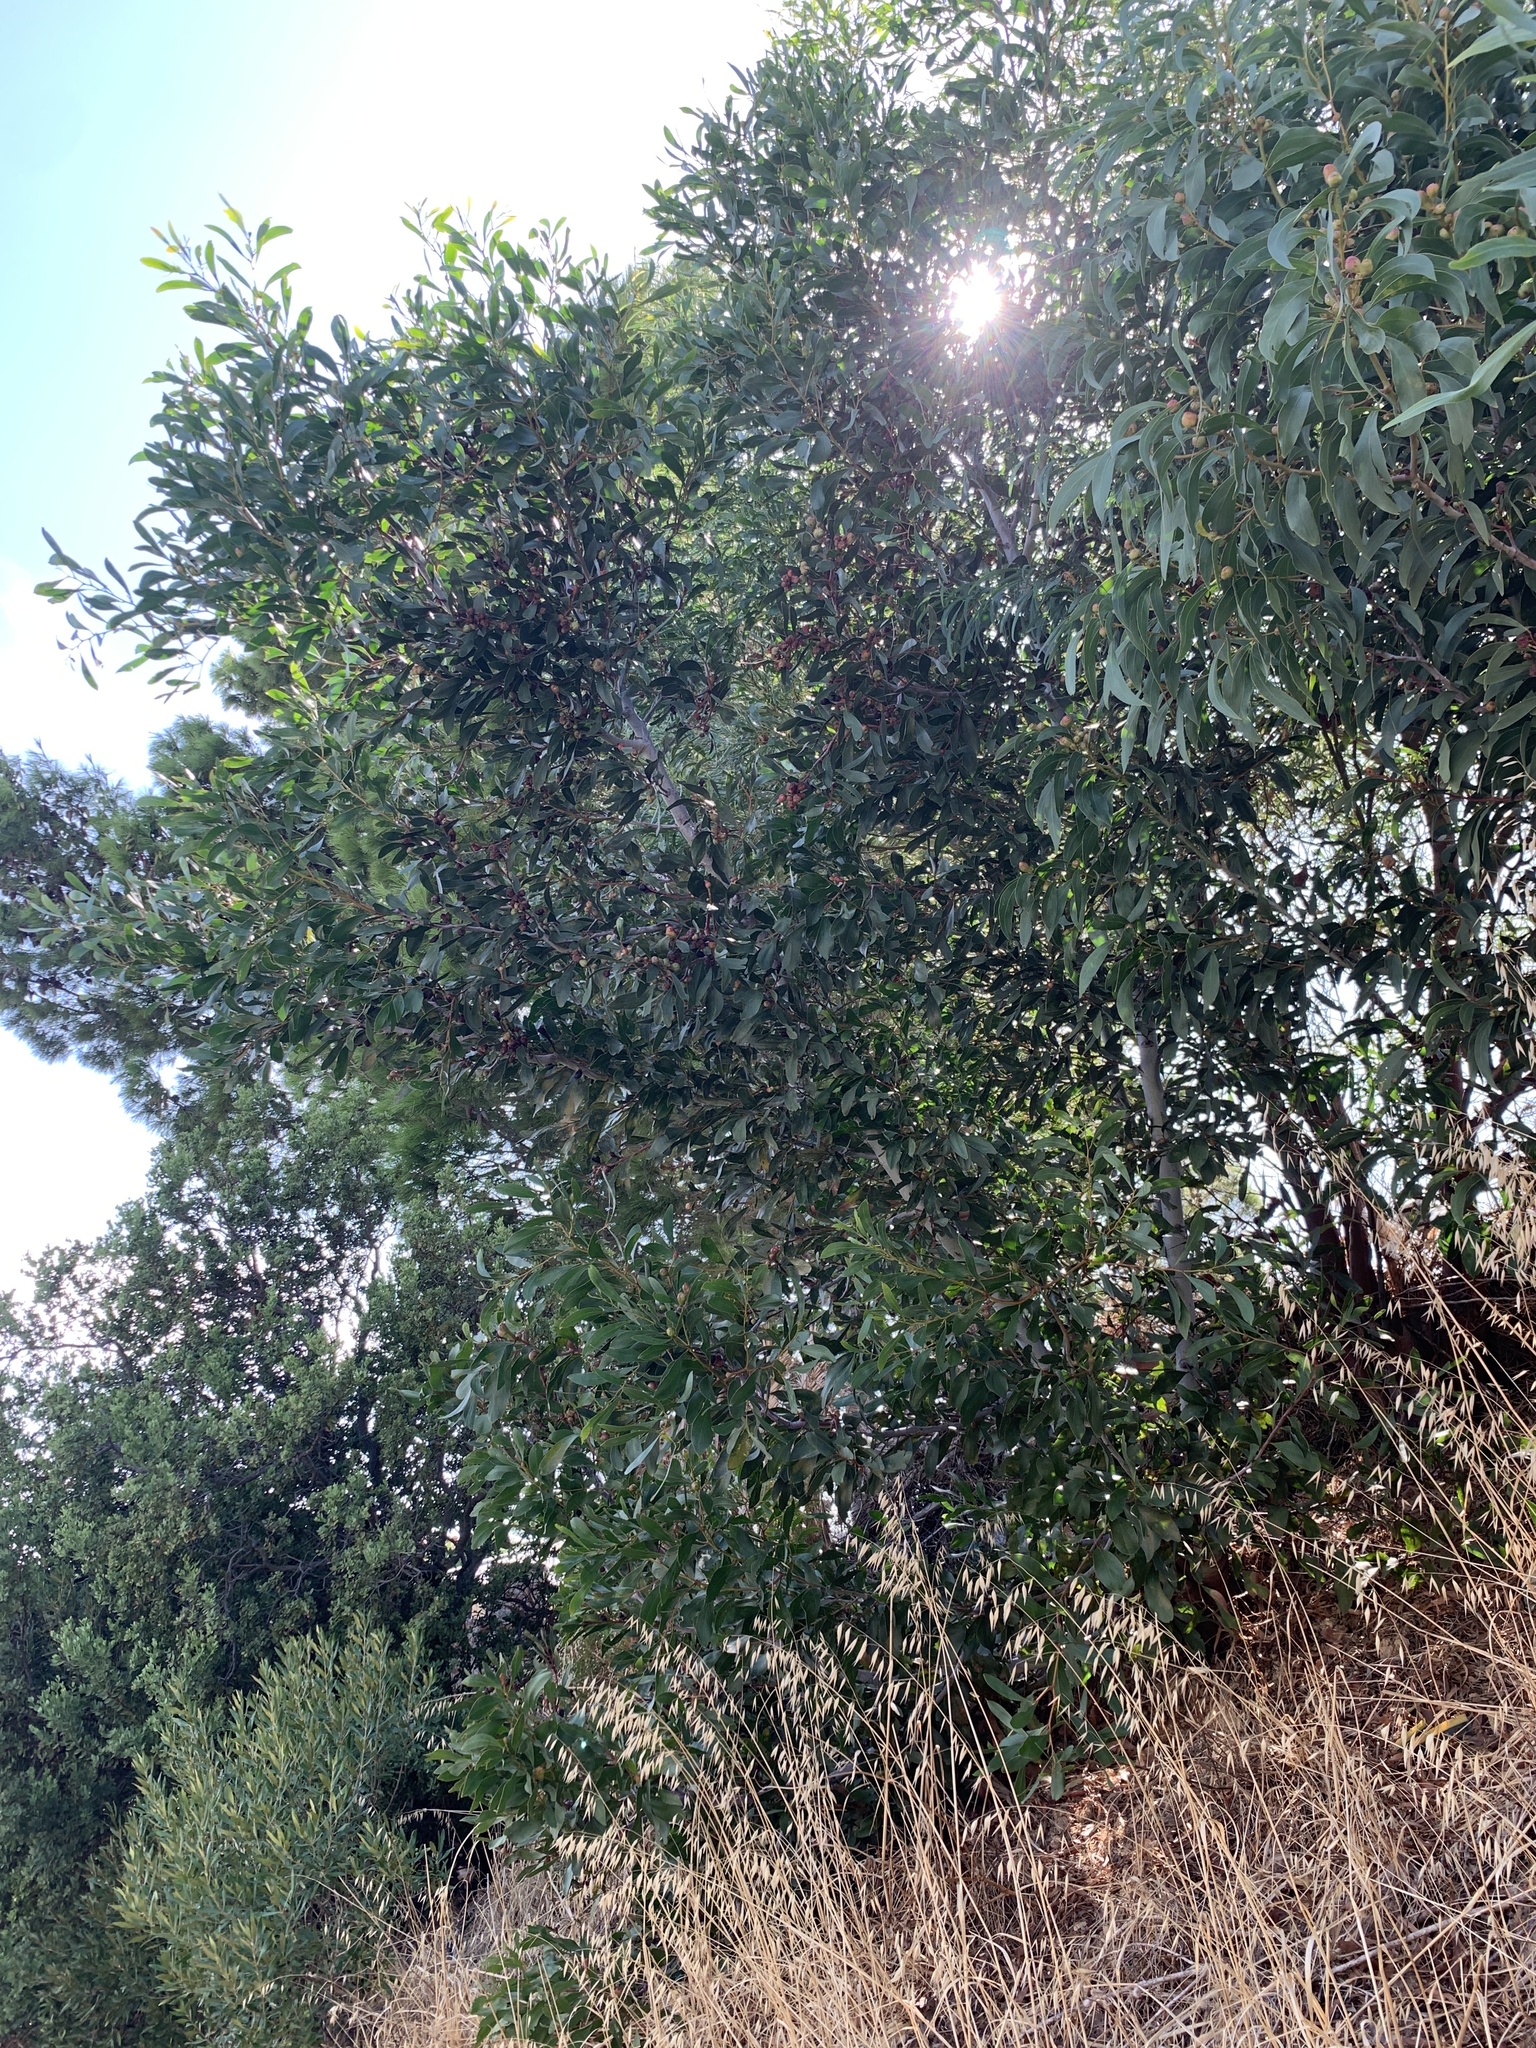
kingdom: Plantae
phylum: Tracheophyta
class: Magnoliopsida
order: Fabales
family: Fabaceae
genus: Acacia
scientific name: Acacia pycnantha
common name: Golden wattle
